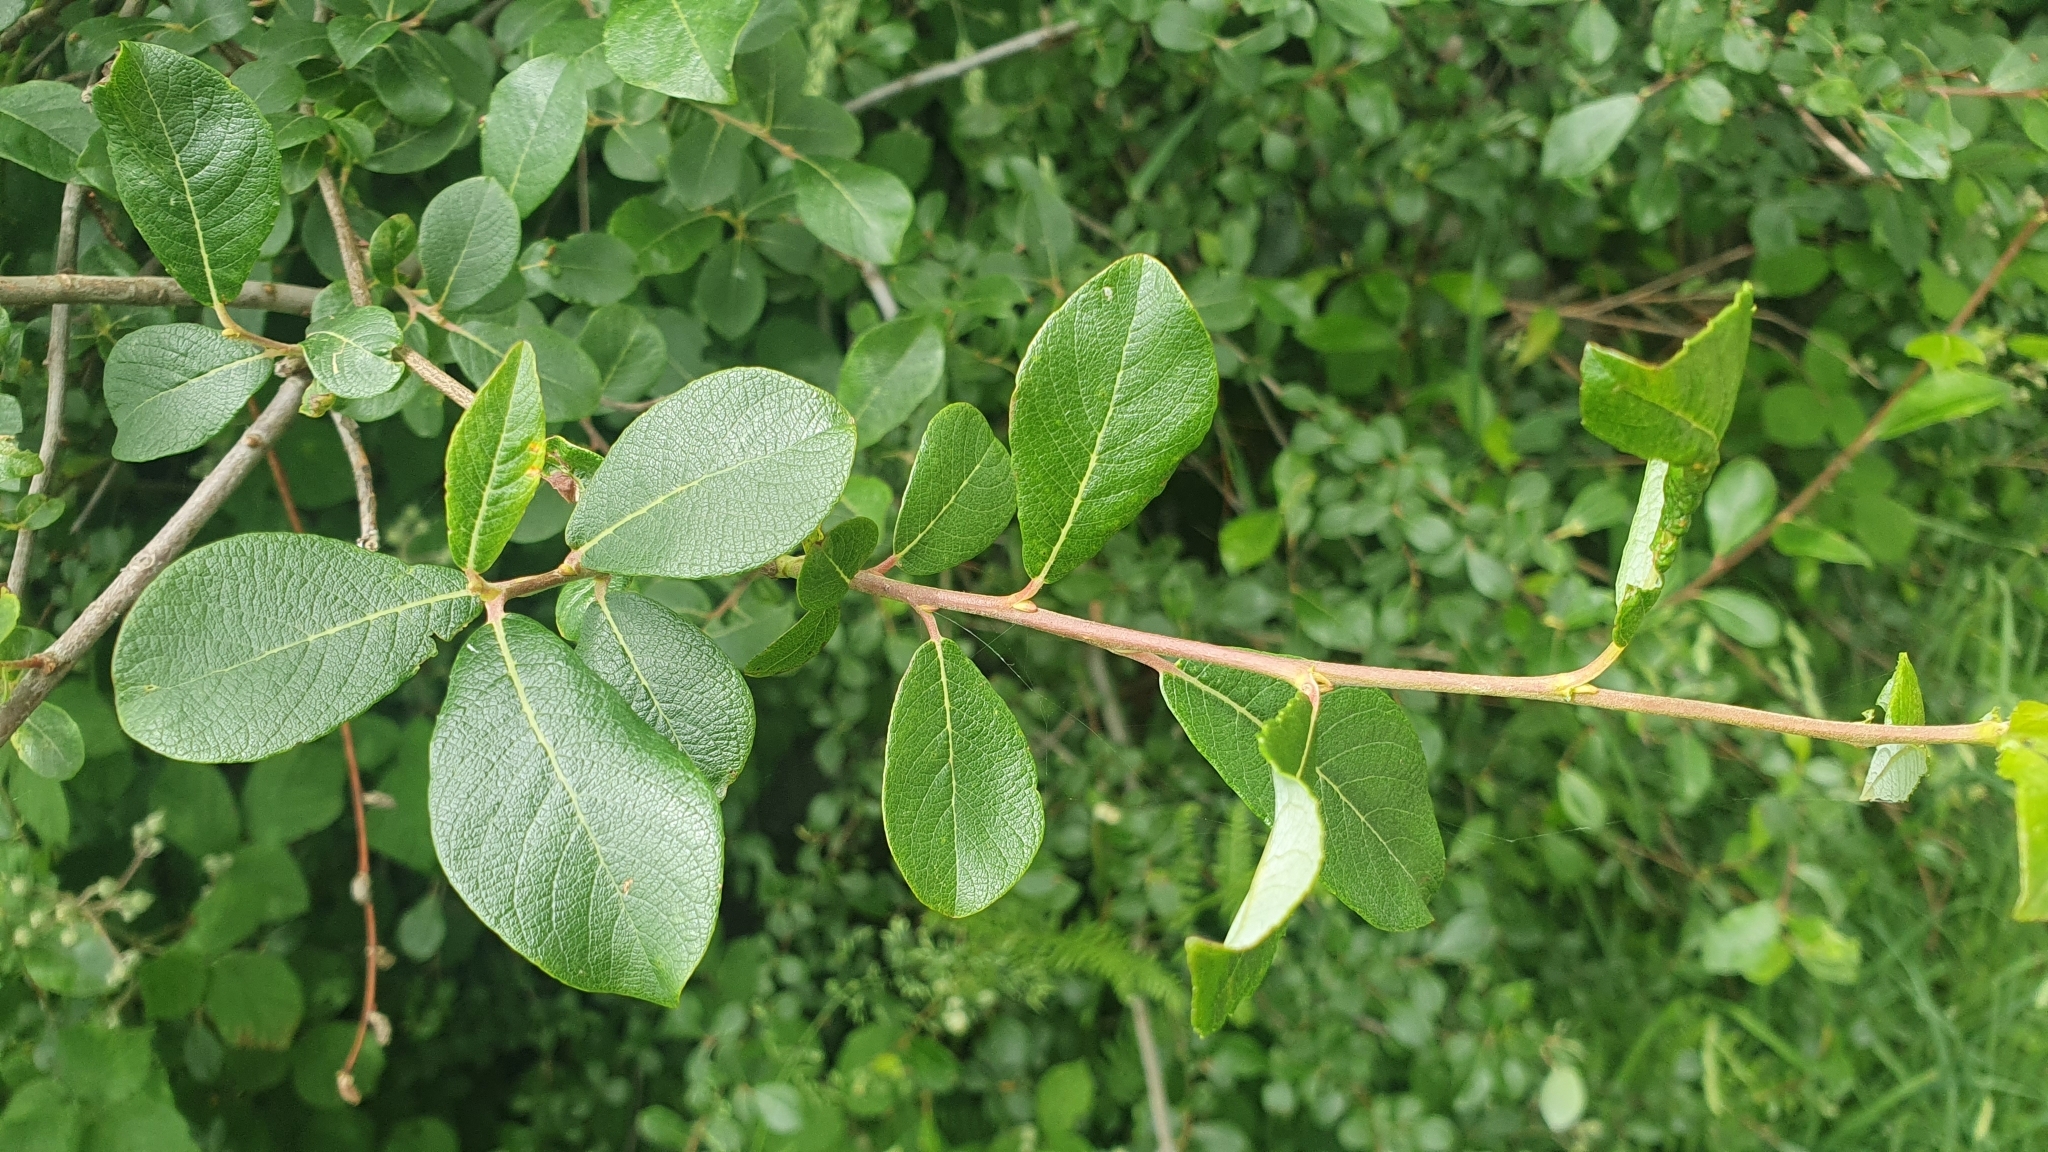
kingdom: Plantae
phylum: Tracheophyta
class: Magnoliopsida
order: Malpighiales
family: Salicaceae
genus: Salix
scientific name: Salix atrocinerea
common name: Rusty willow
